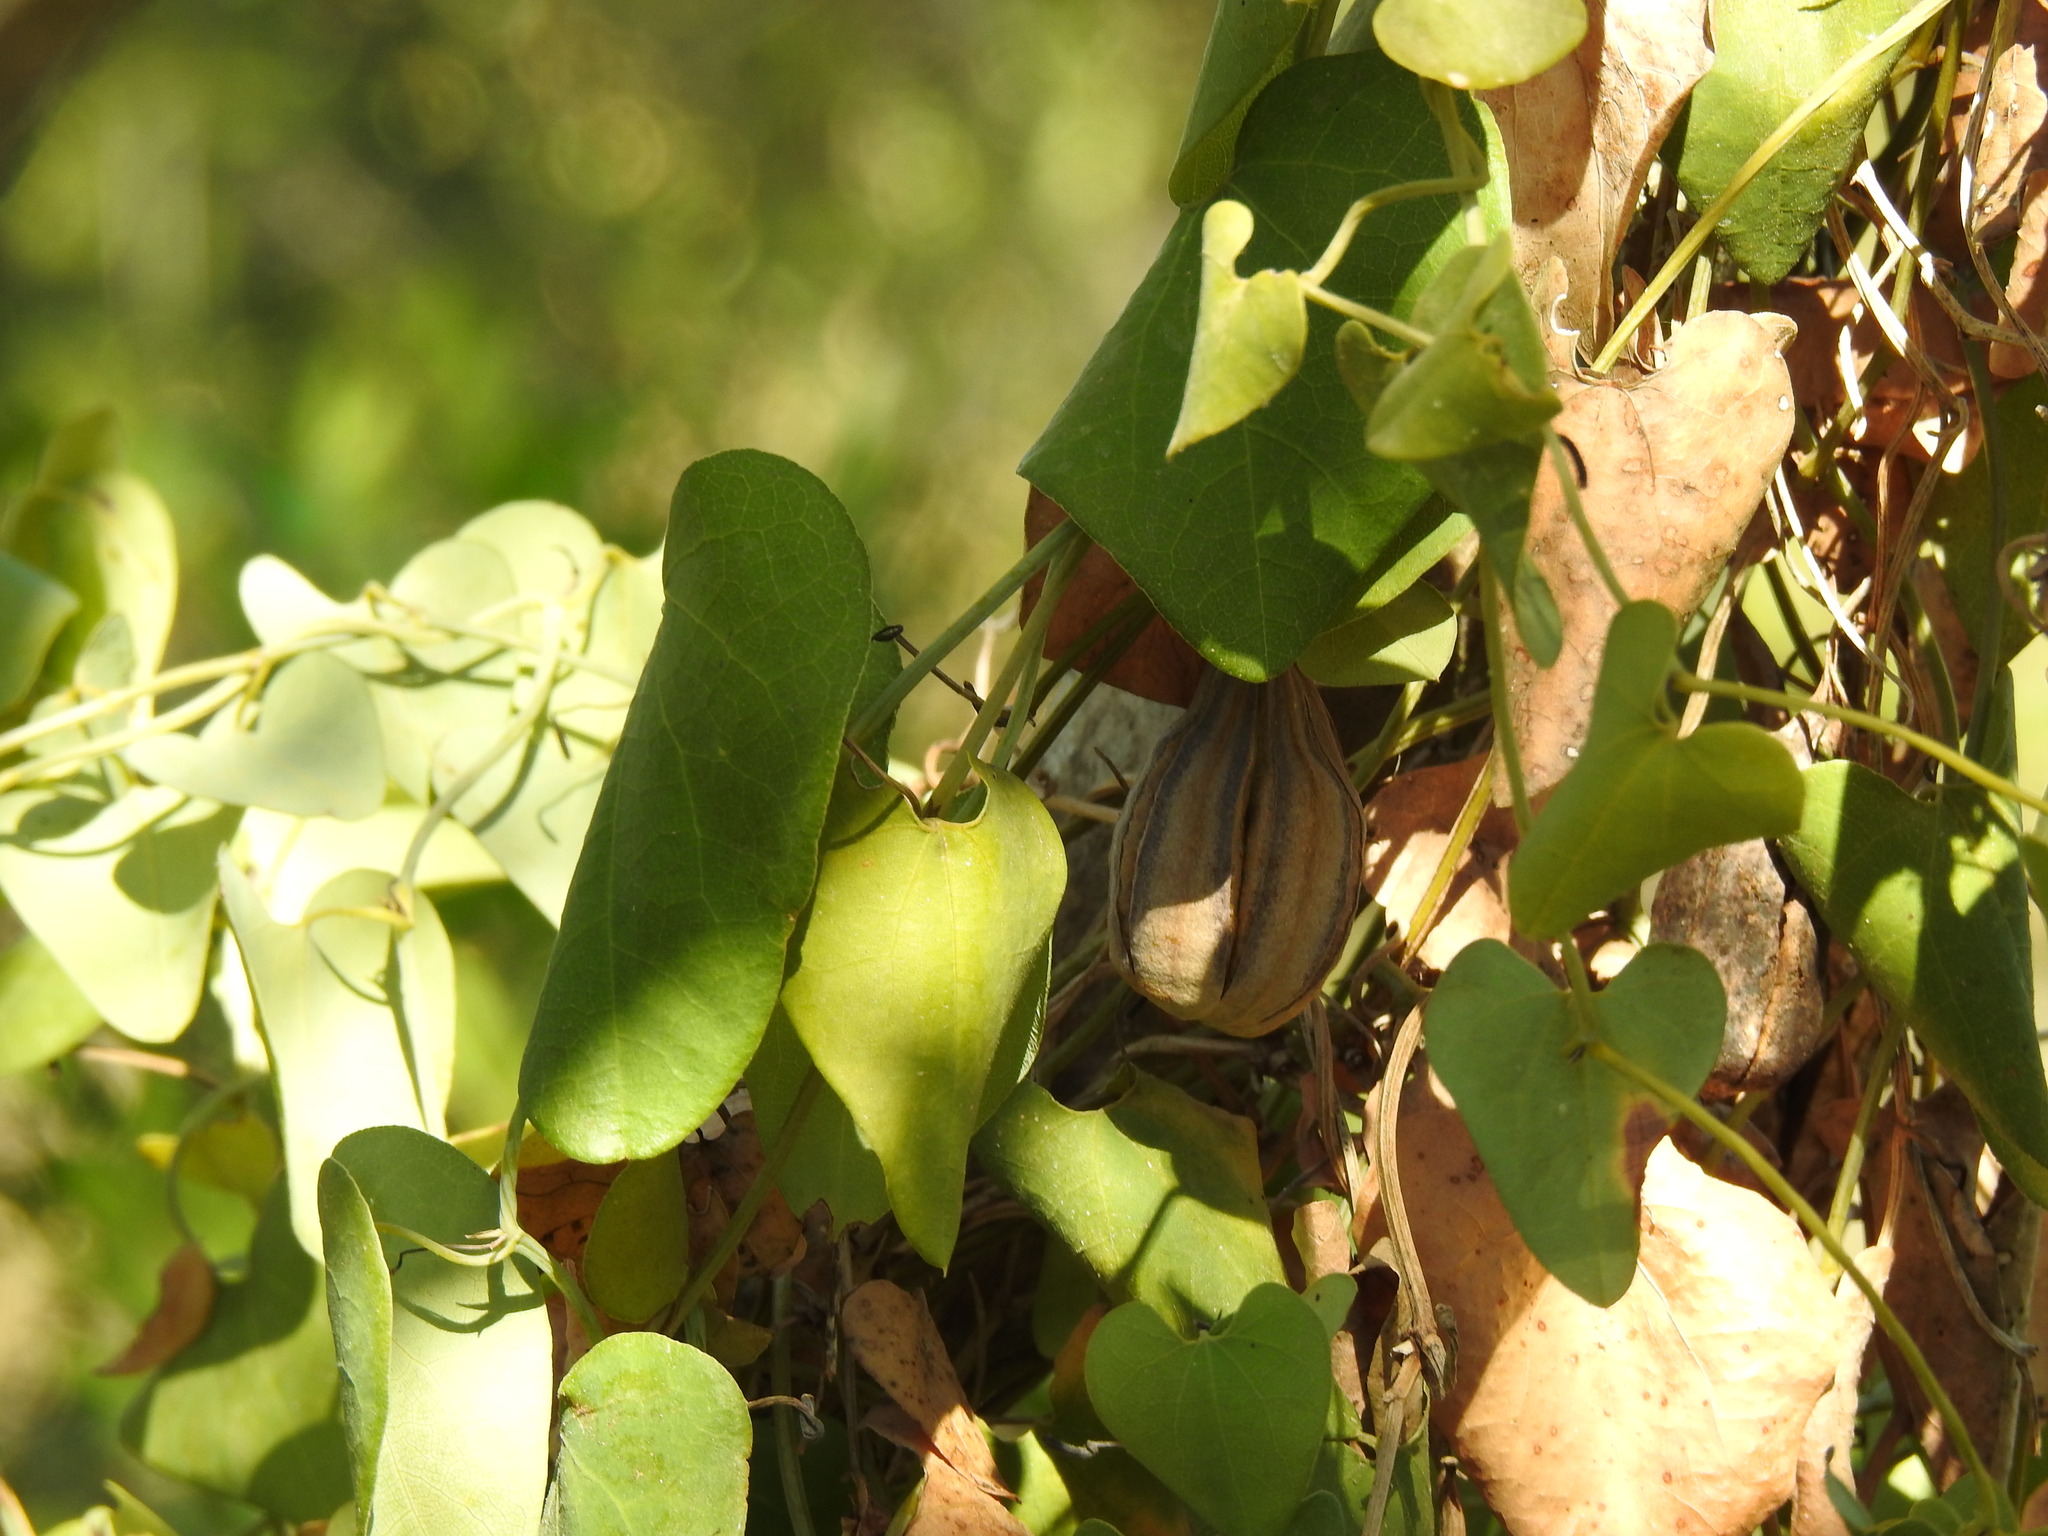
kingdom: Plantae
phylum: Tracheophyta
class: Magnoliopsida
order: Piperales
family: Aristolochiaceae
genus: Aristolochia
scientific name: Aristolochia baetica
